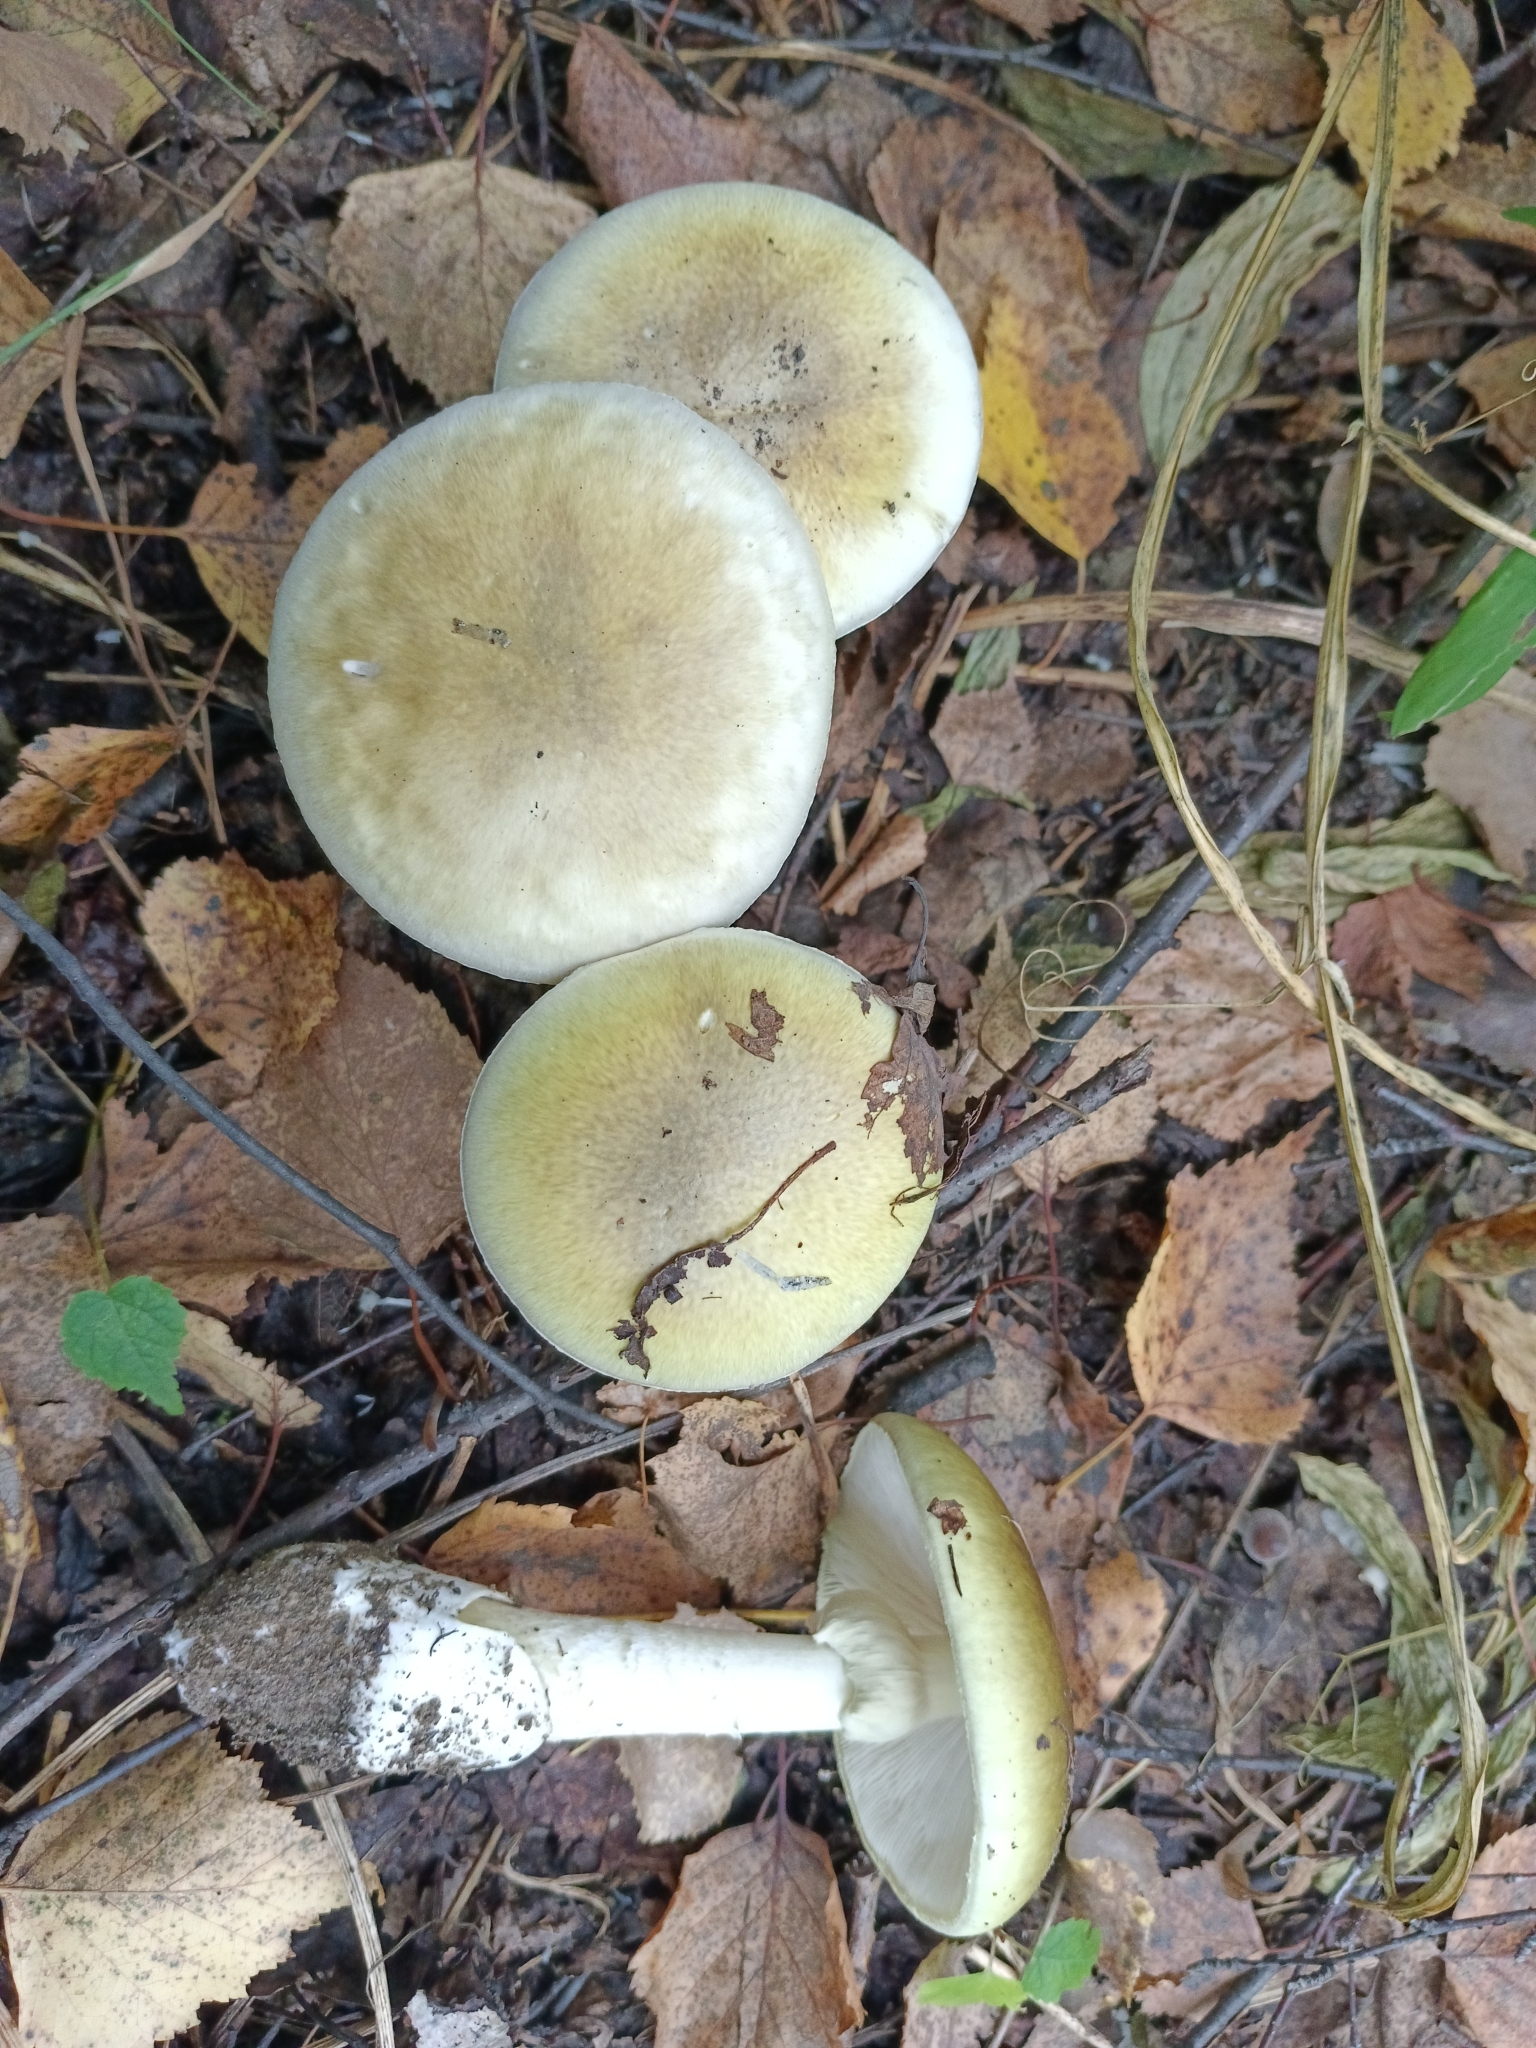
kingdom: Fungi
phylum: Basidiomycota
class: Agaricomycetes
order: Agaricales
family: Amanitaceae
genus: Amanita
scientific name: Amanita phalloides
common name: Death cap
